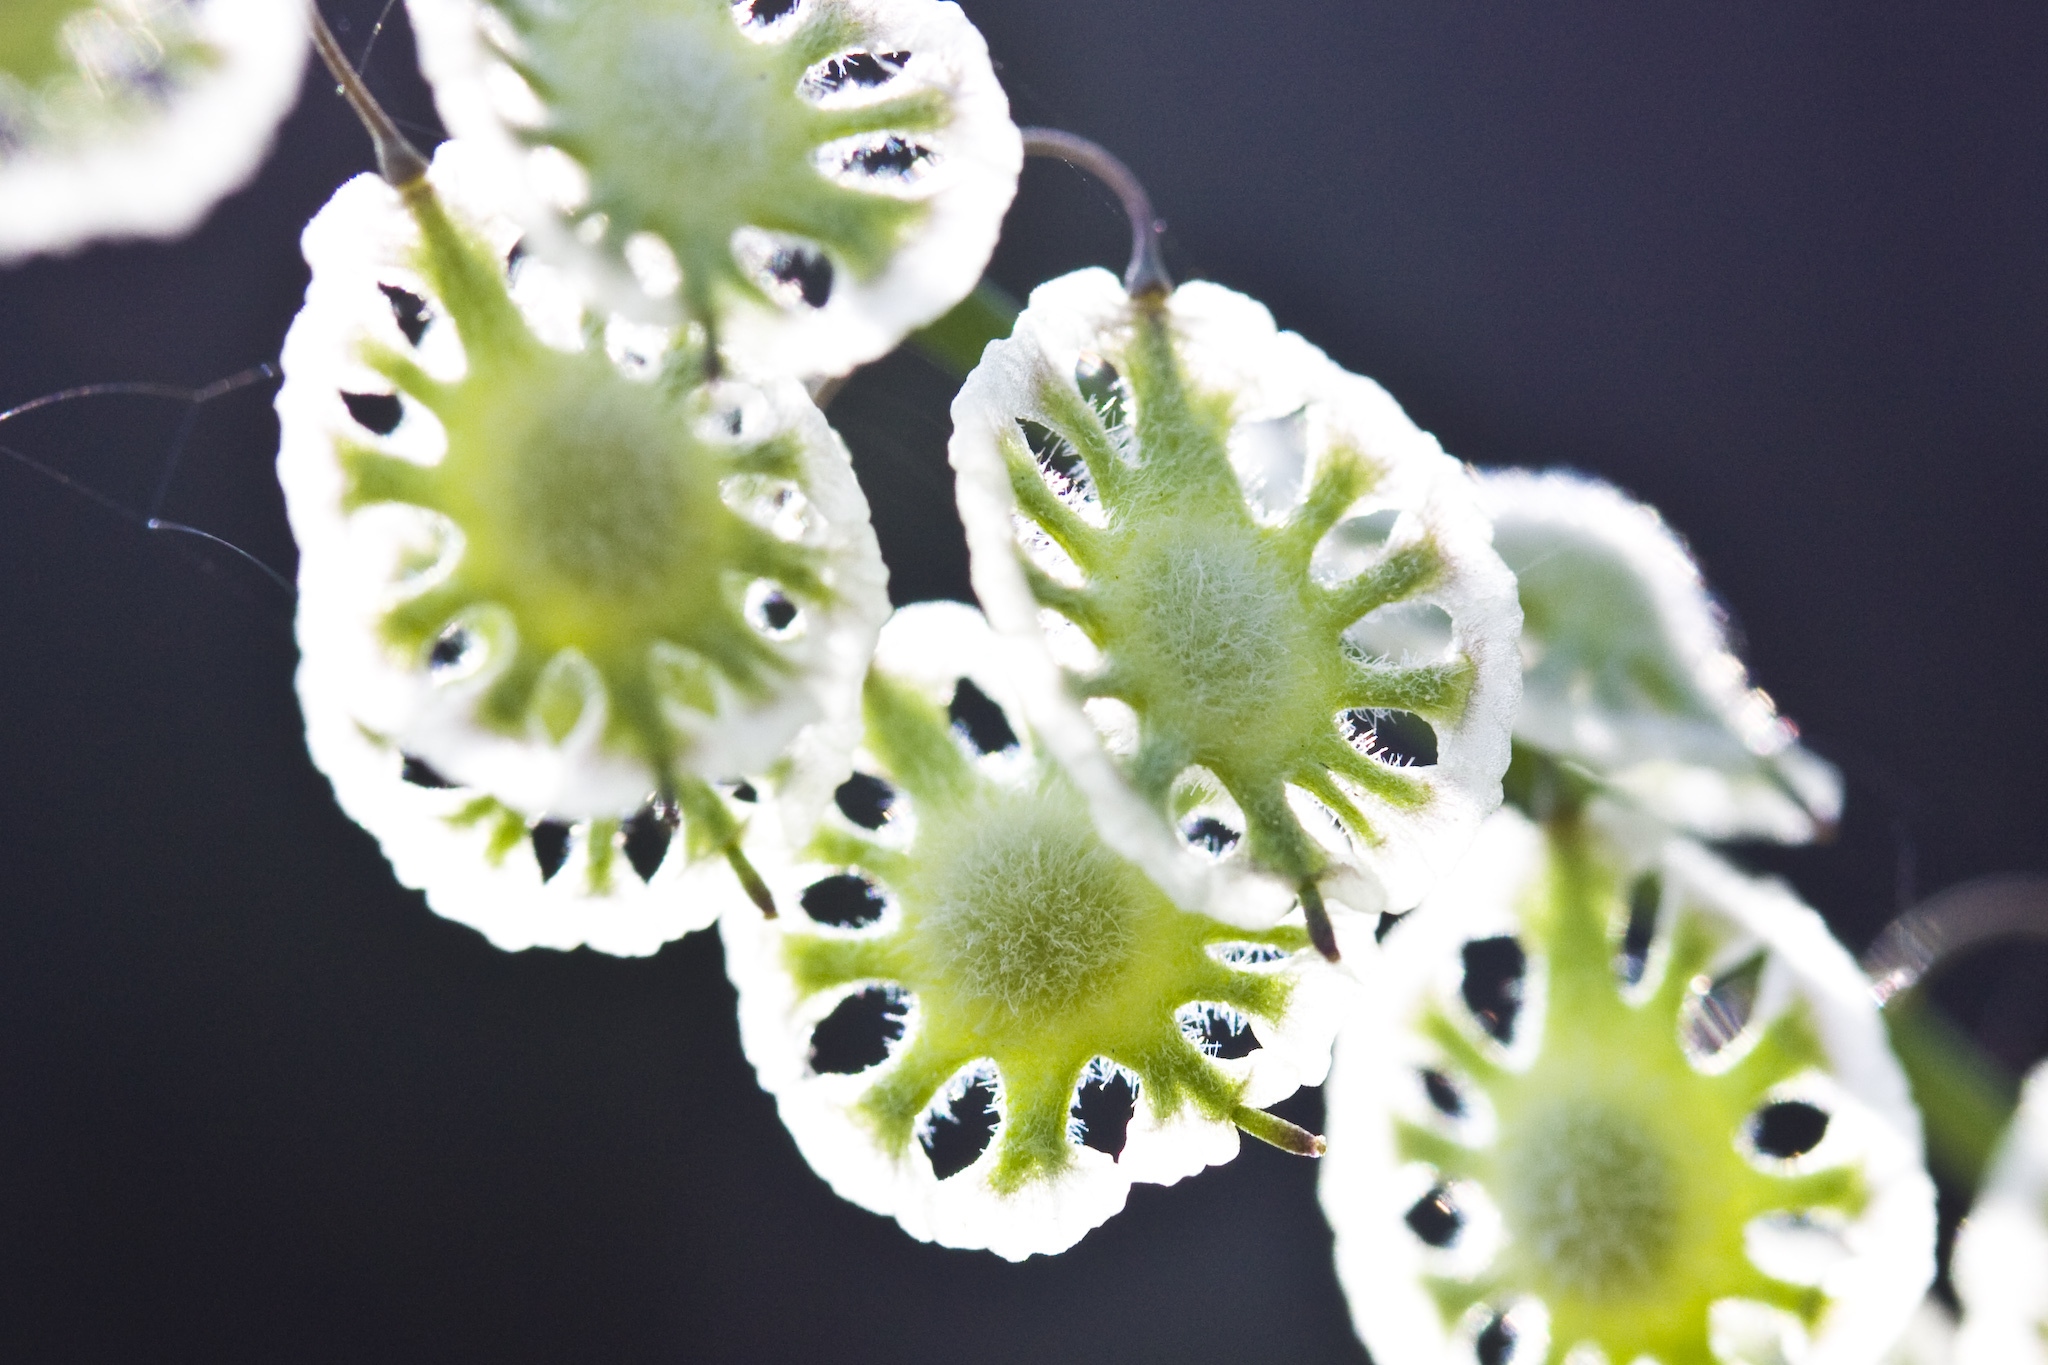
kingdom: Plantae
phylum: Tracheophyta
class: Magnoliopsida
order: Brassicales
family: Brassicaceae
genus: Thysanocarpus
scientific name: Thysanocarpus curvipes
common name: Sand fringepod
